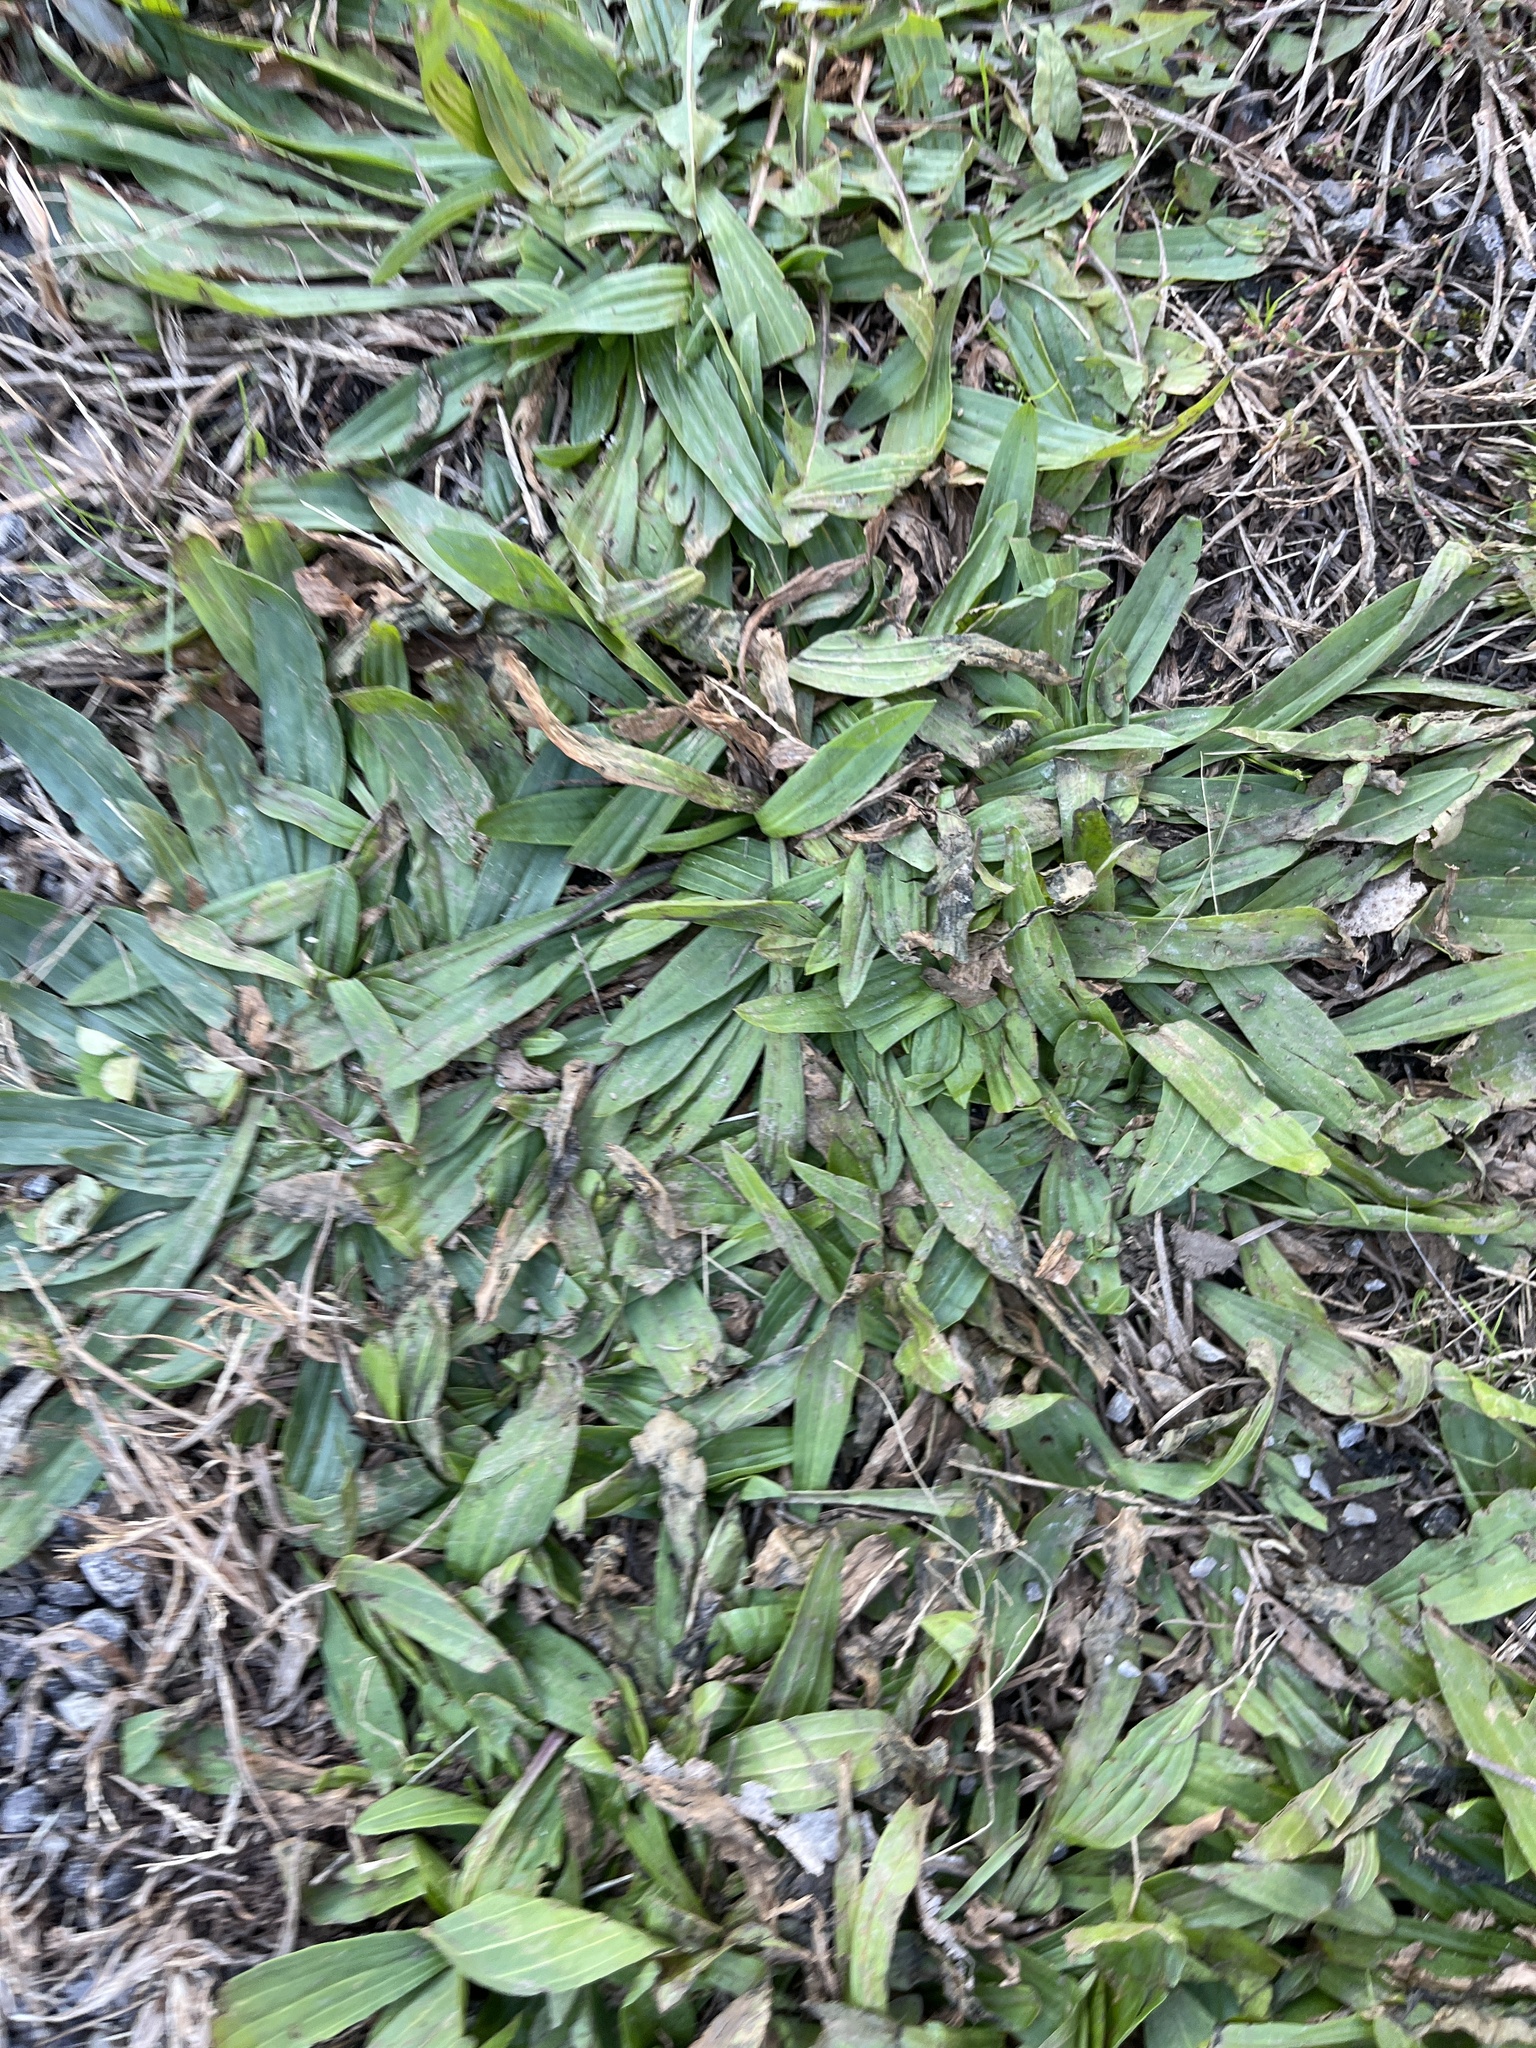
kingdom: Plantae
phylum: Tracheophyta
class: Magnoliopsida
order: Lamiales
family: Plantaginaceae
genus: Plantago
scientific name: Plantago lanceolata
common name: Ribwort plantain
